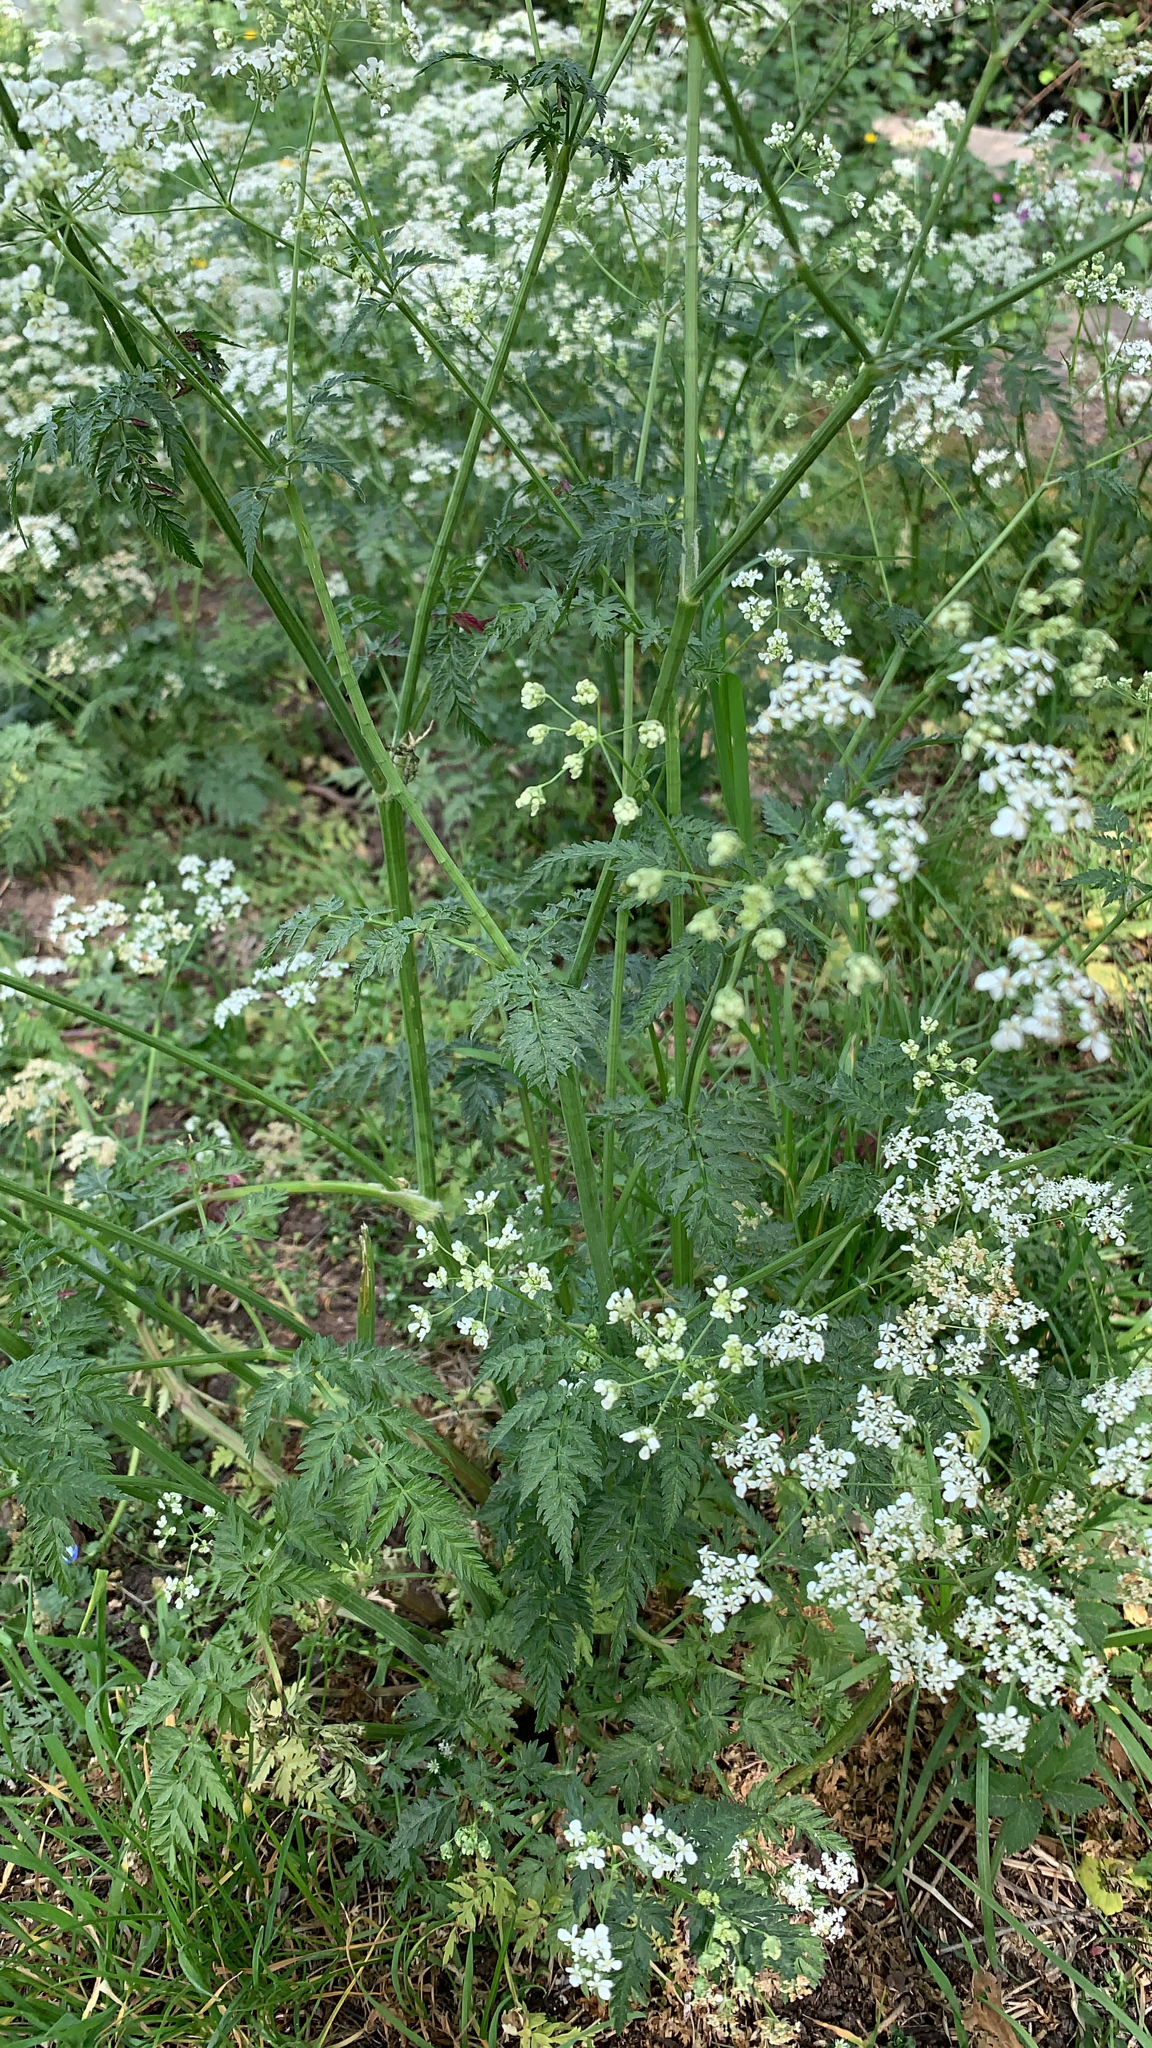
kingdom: Plantae
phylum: Tracheophyta
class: Magnoliopsida
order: Apiales
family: Apiaceae
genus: Anthriscus
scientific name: Anthriscus sylvestris
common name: Cow parsley
